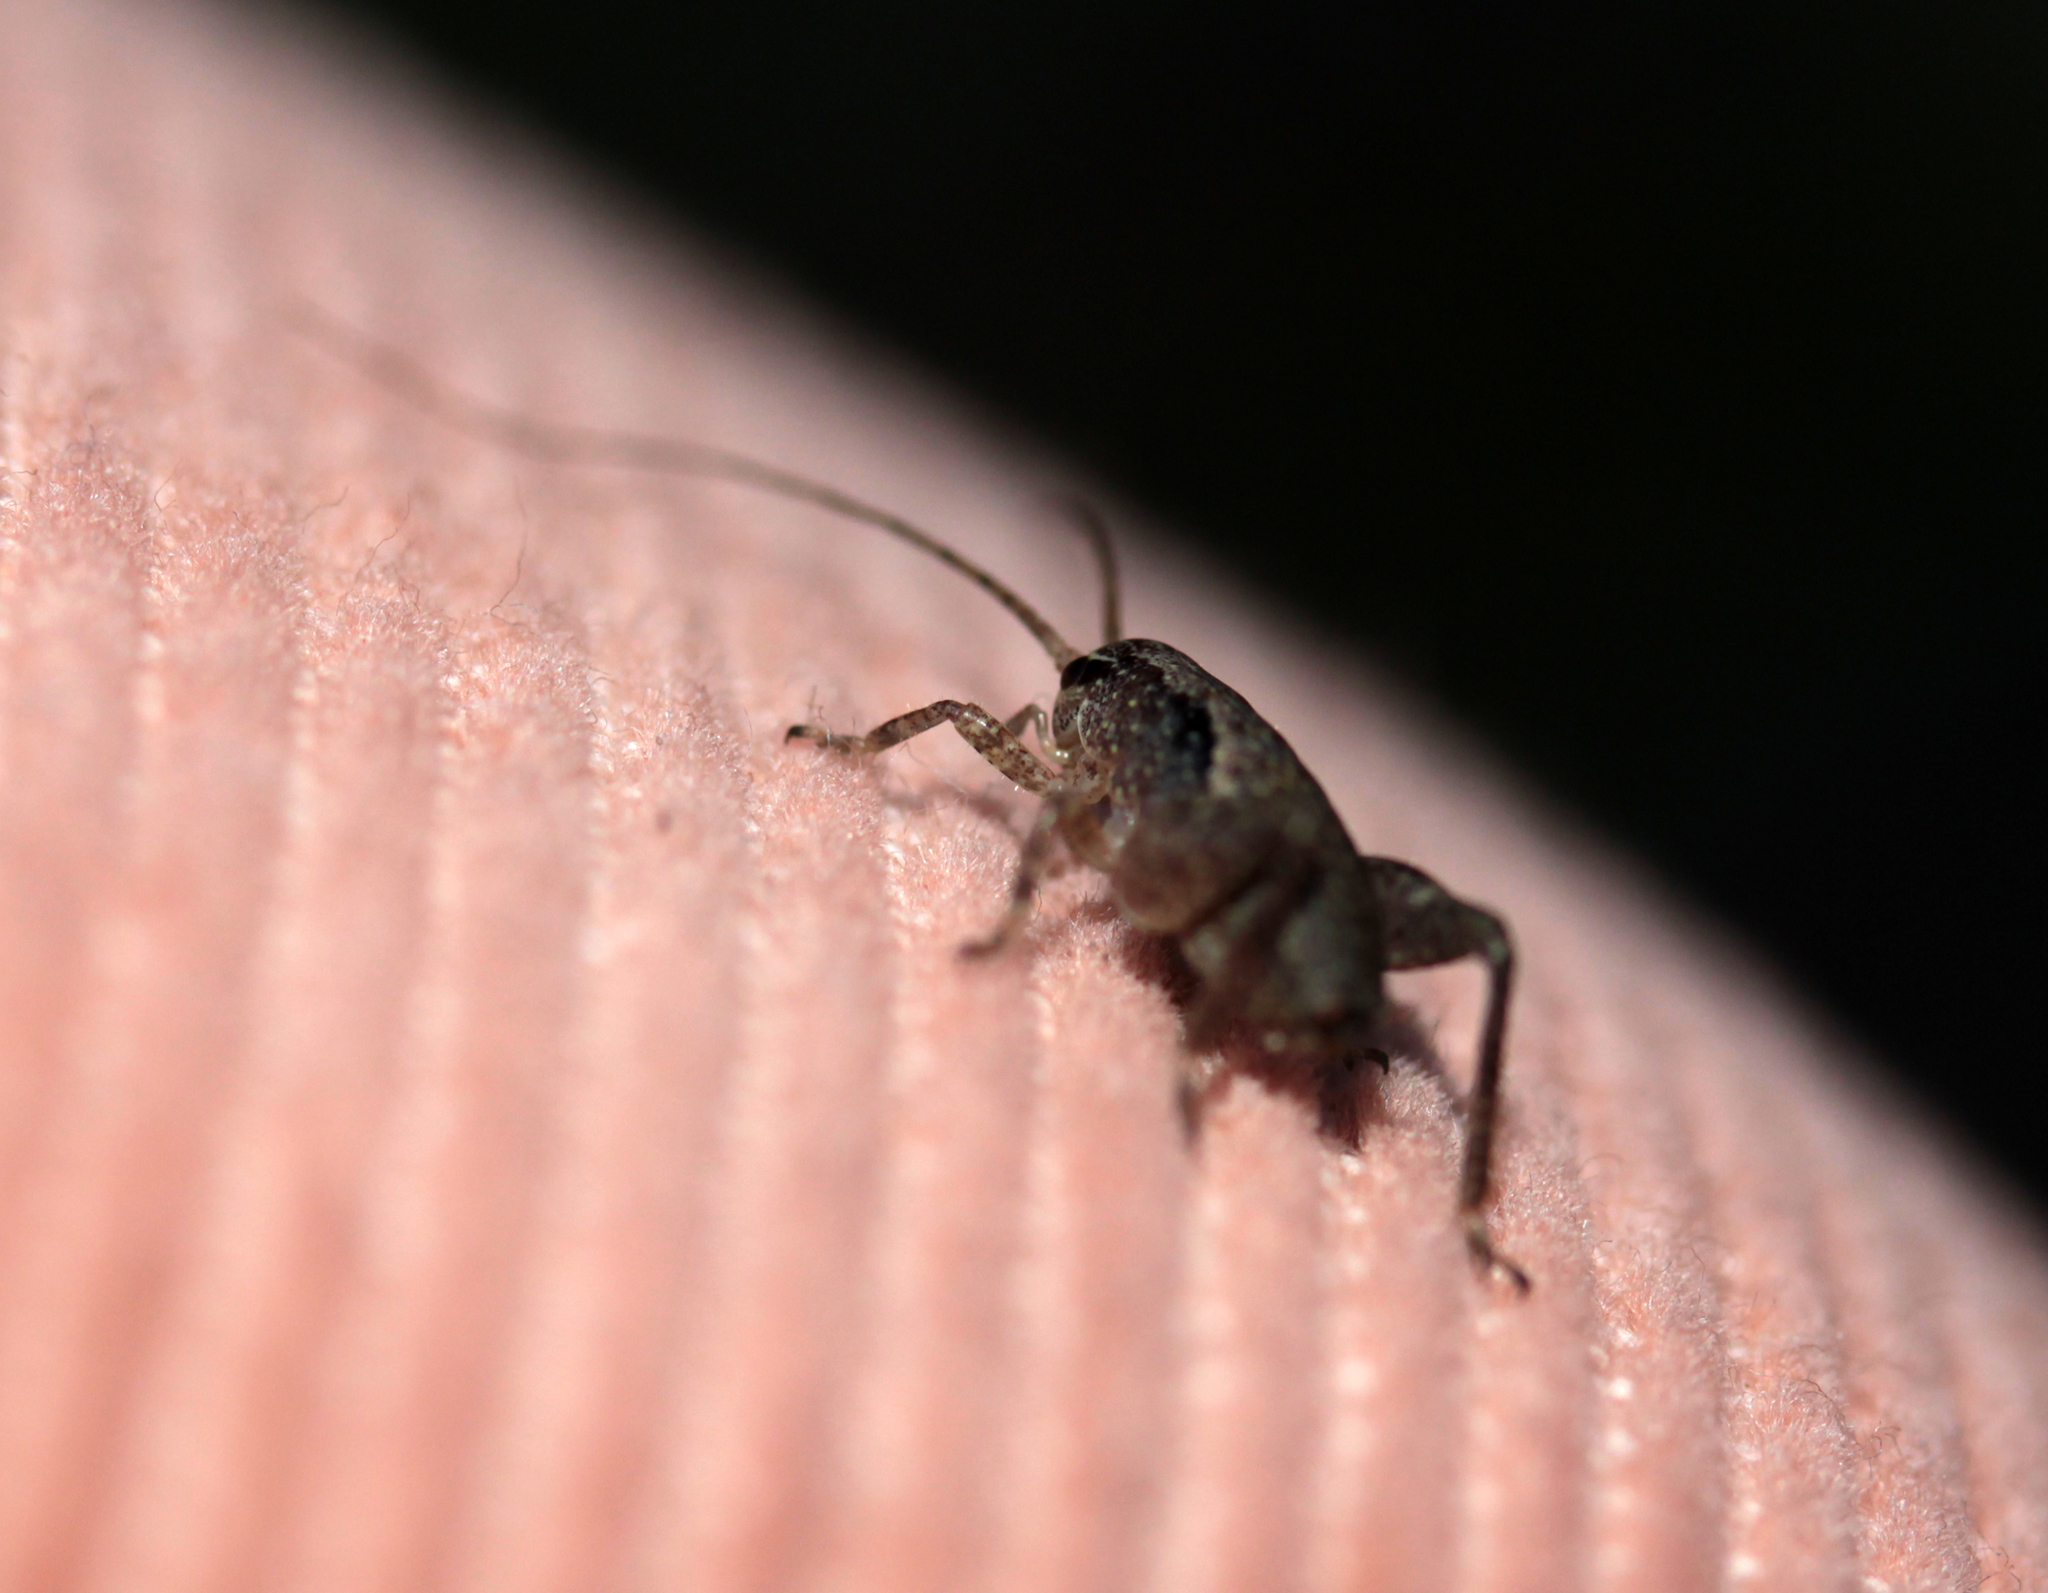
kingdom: Animalia
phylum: Arthropoda
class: Insecta
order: Orthoptera
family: Rhaphidophoridae
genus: Gammarotettix
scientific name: Gammarotettix genitalis
